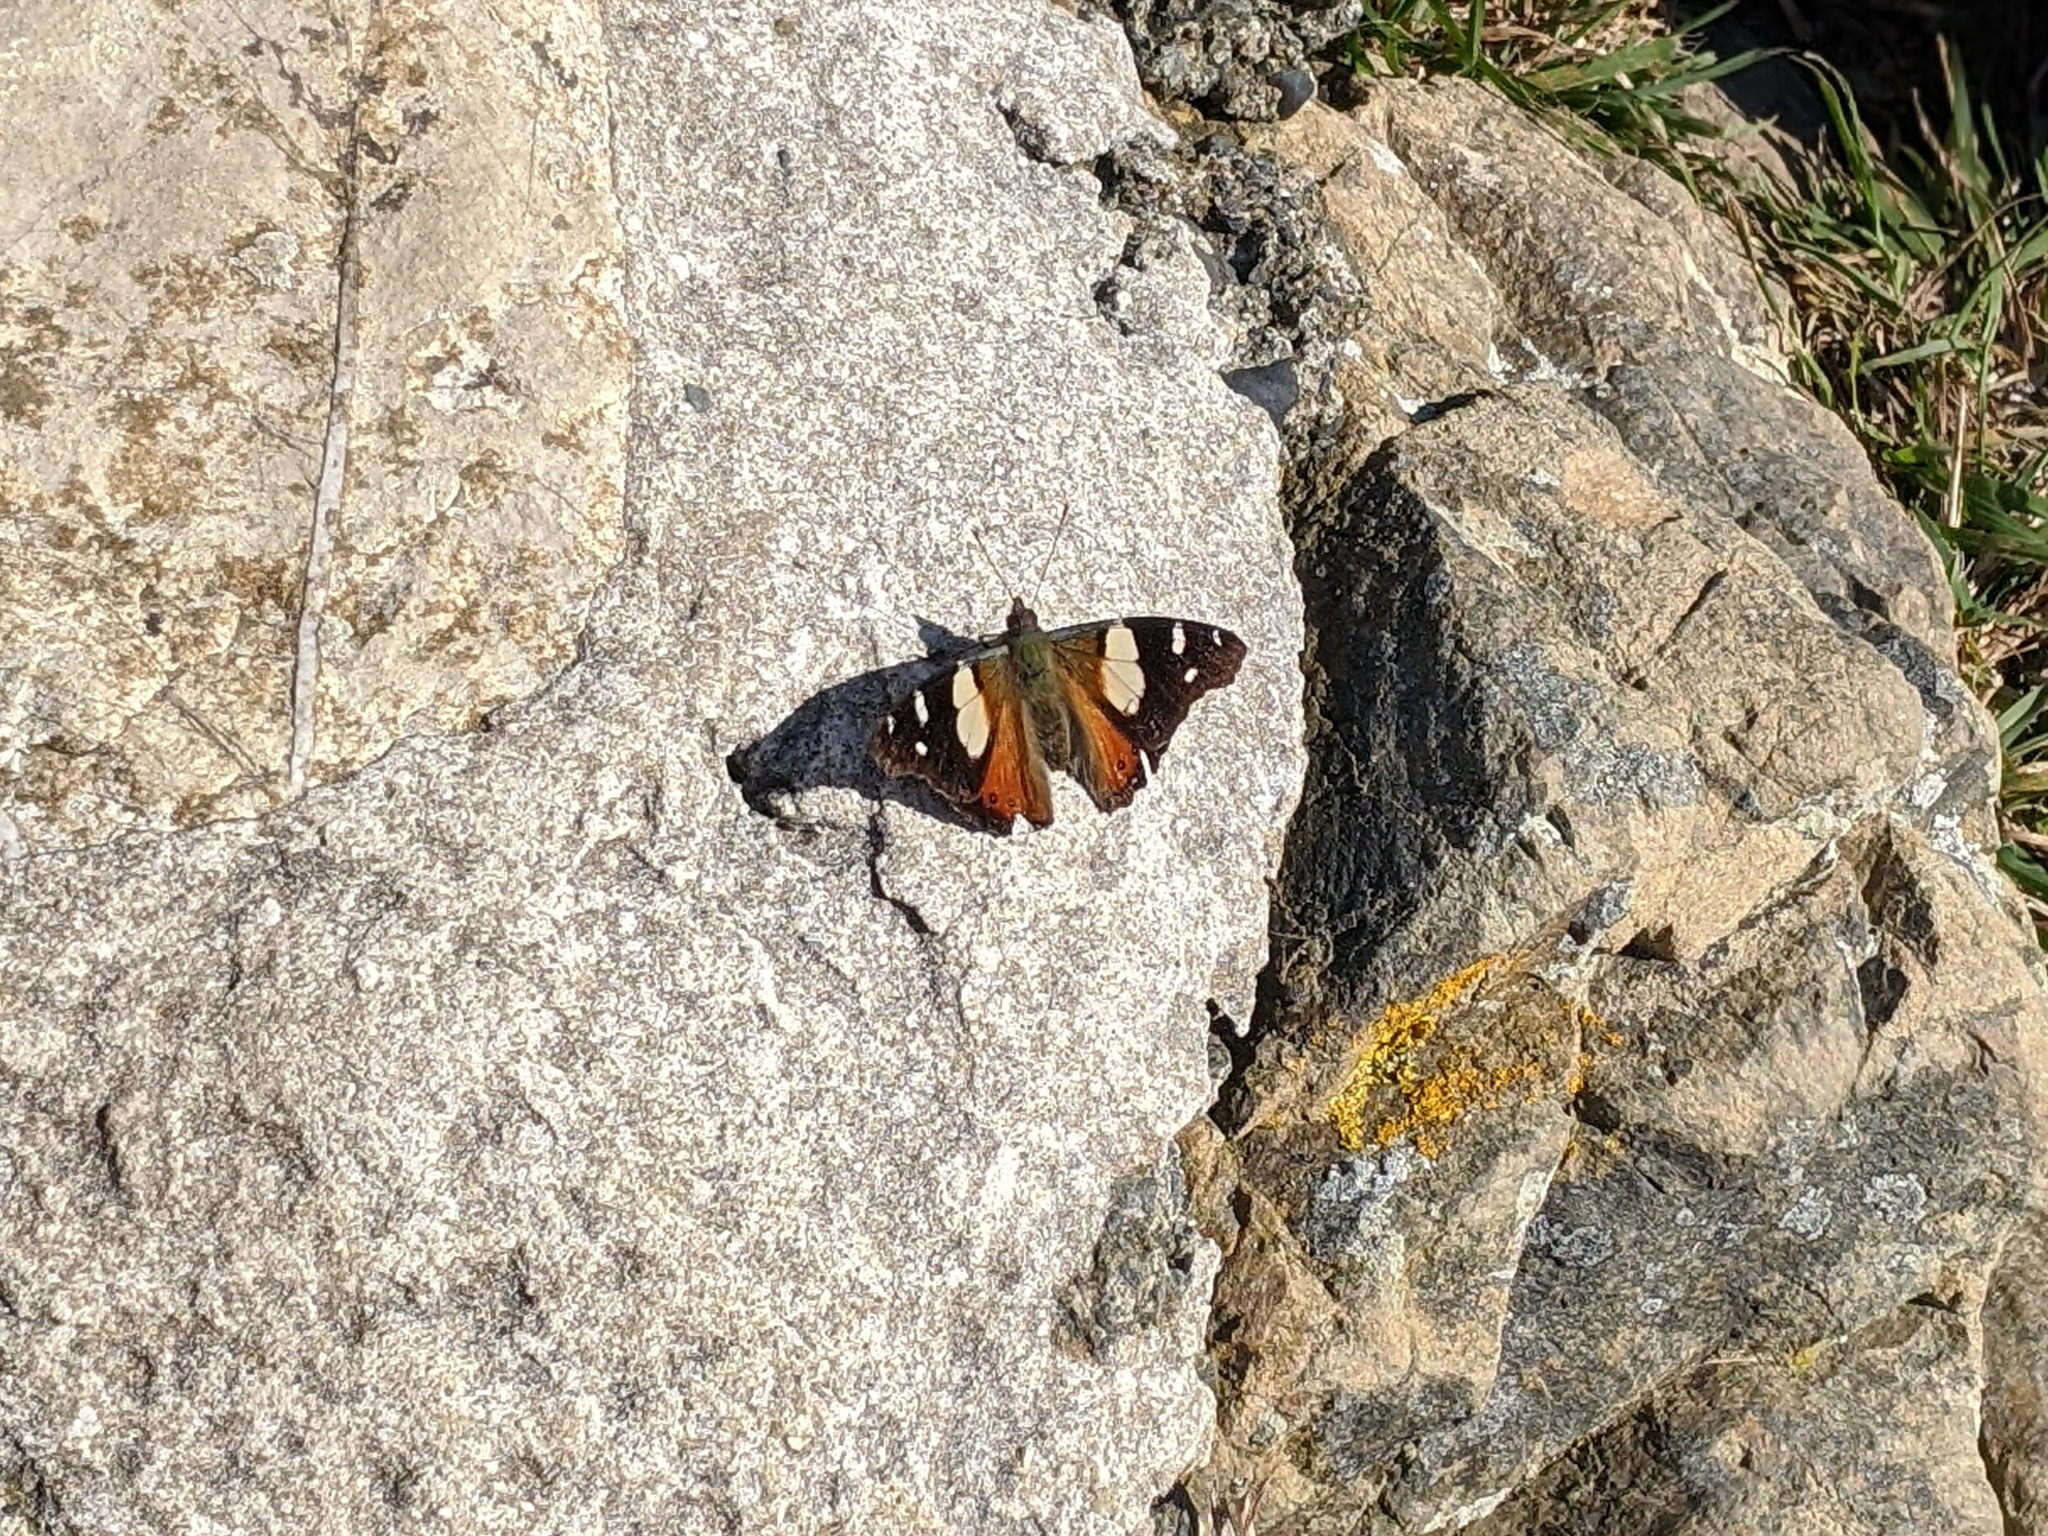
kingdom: Animalia
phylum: Arthropoda
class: Insecta
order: Lepidoptera
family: Nymphalidae
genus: Vanessa
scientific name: Vanessa itea
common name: Yellow admiral
